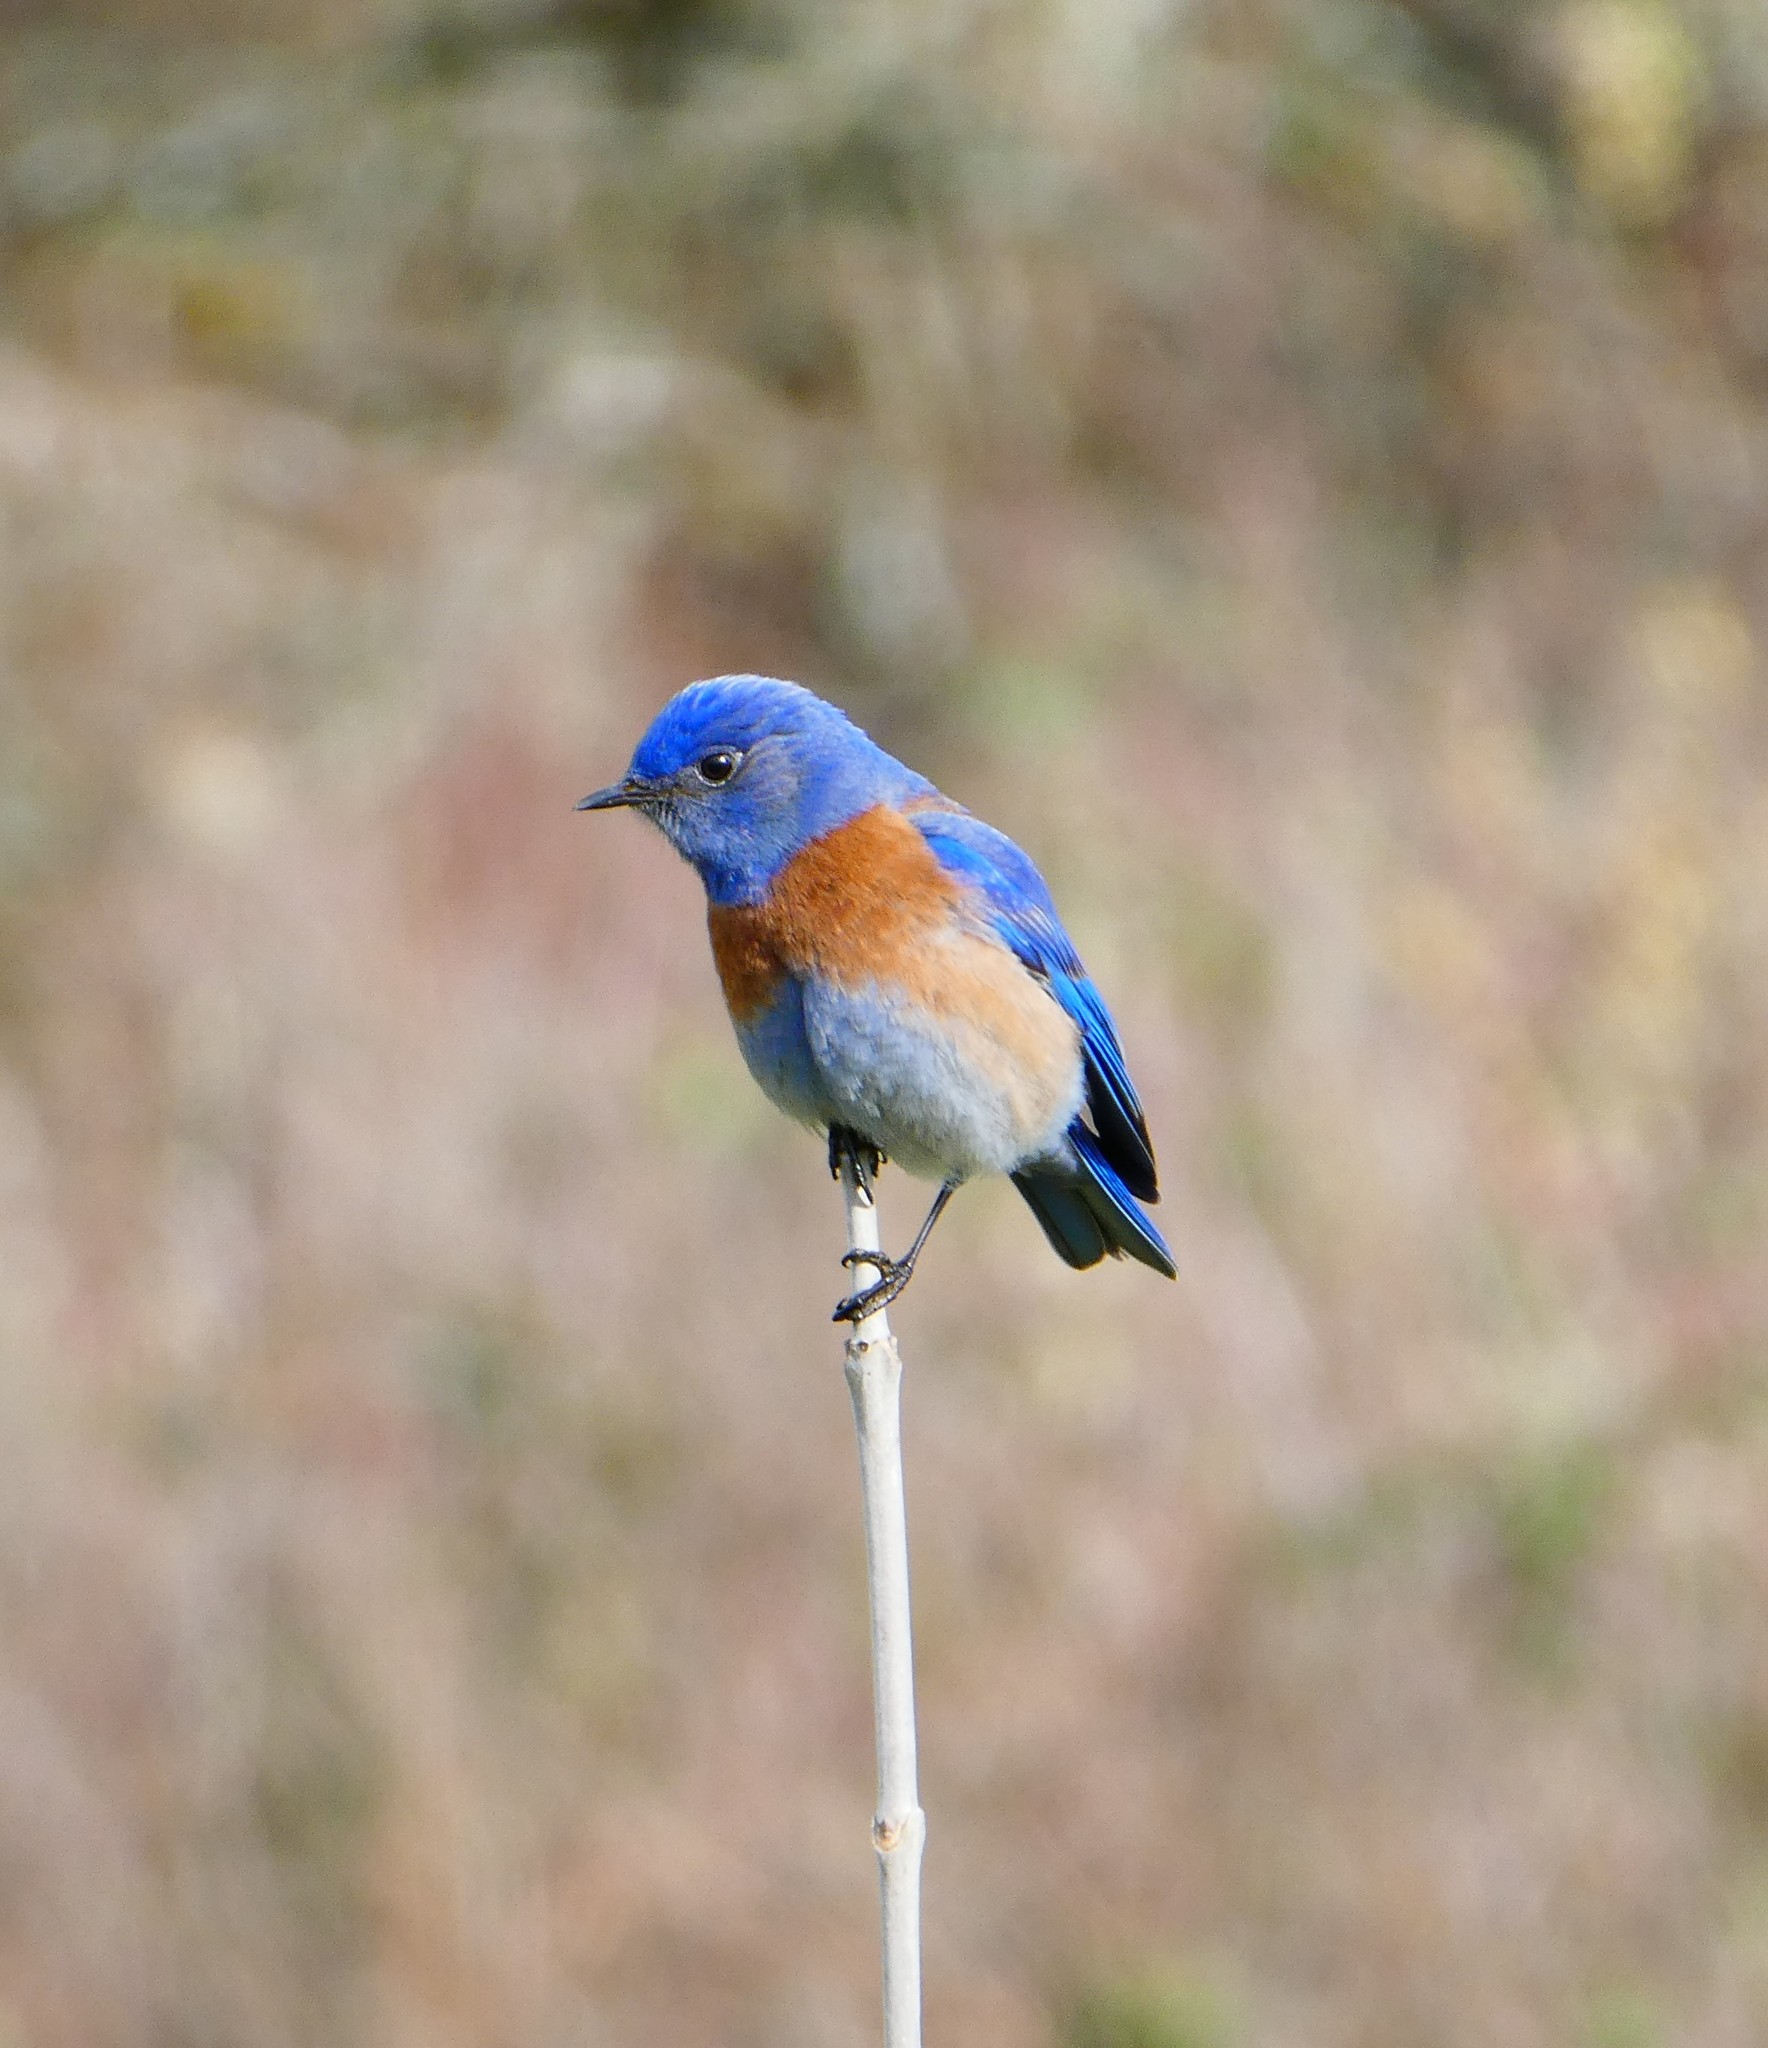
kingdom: Animalia
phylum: Chordata
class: Aves
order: Passeriformes
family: Turdidae
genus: Sialia
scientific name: Sialia mexicana
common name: Western bluebird
